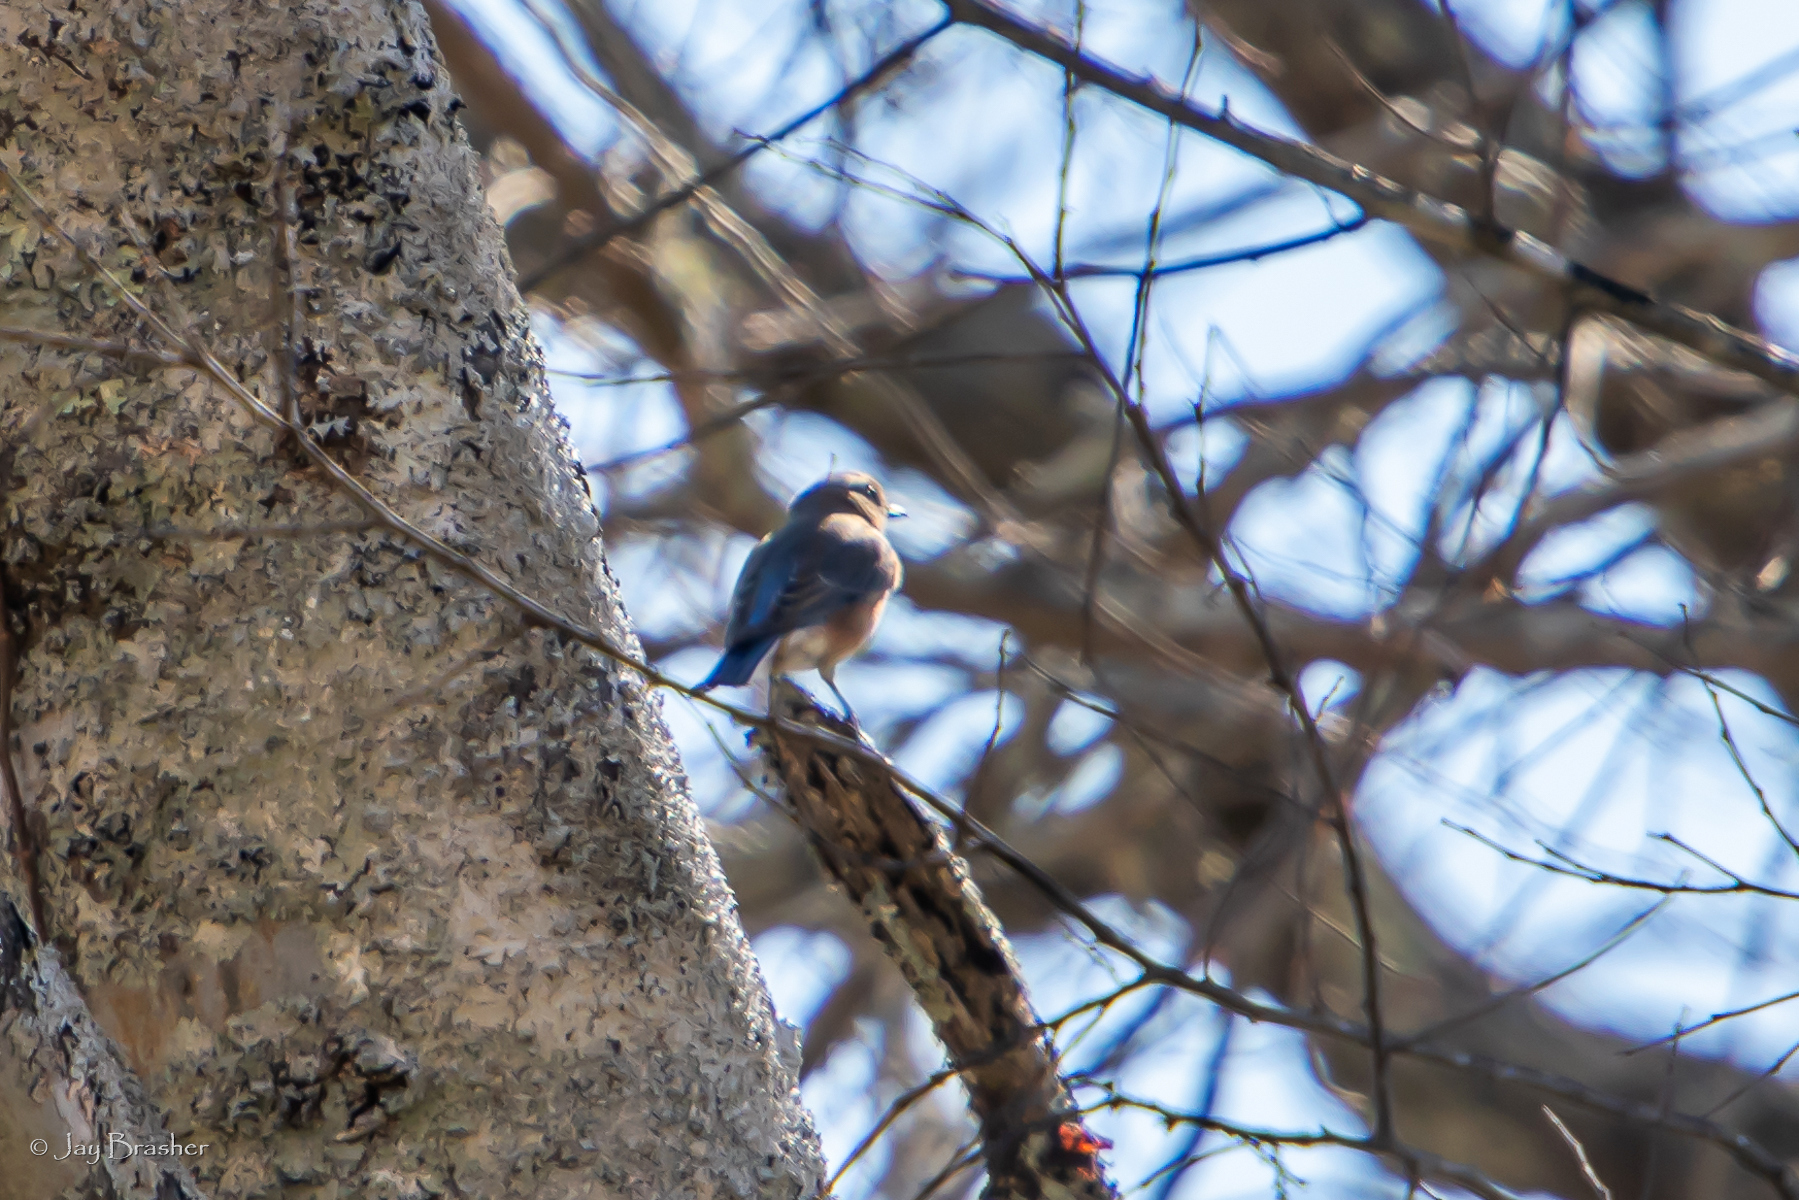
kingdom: Animalia
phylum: Chordata
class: Aves
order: Passeriformes
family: Turdidae
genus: Sialia
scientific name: Sialia sialis
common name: Eastern bluebird
